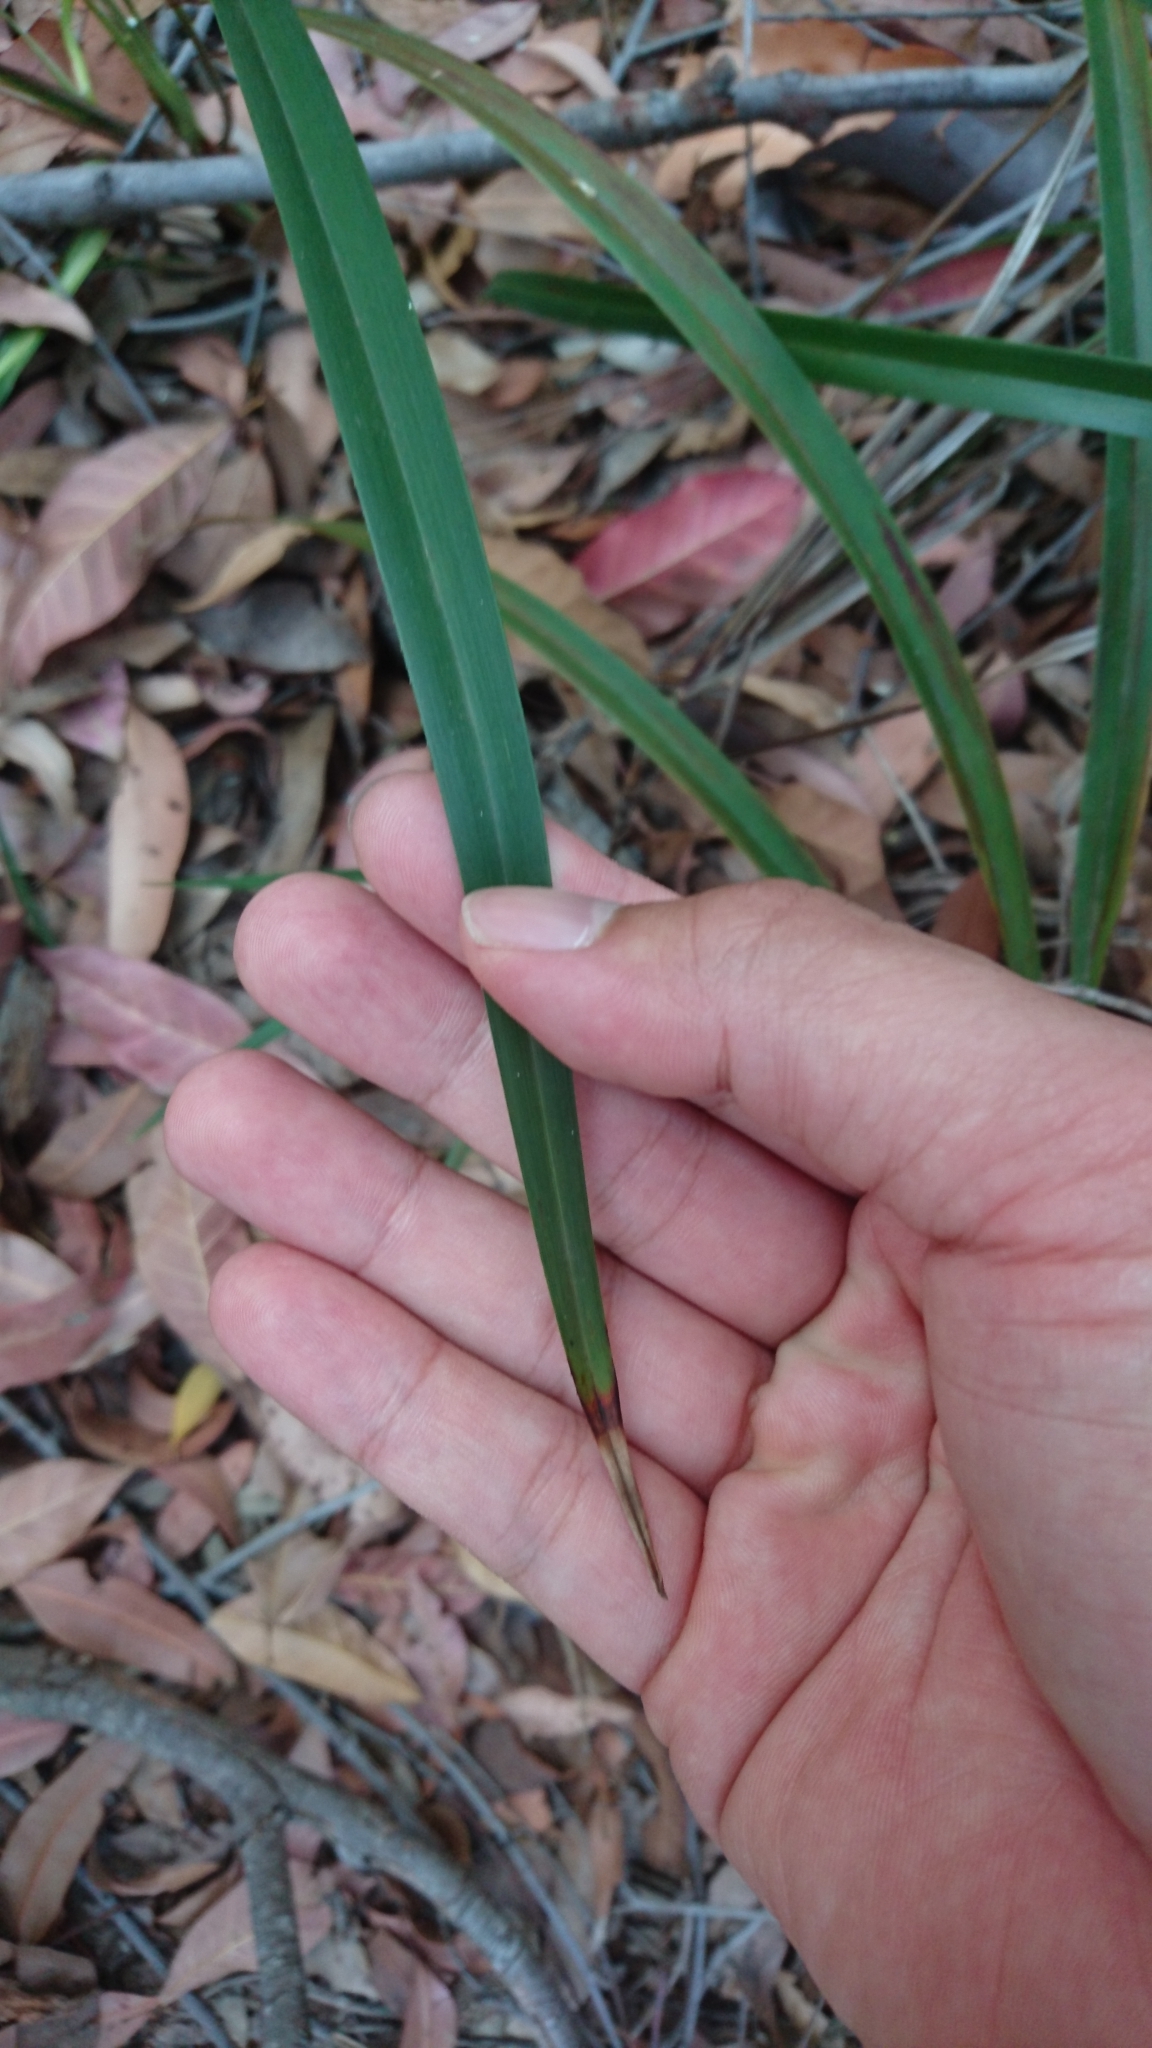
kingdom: Plantae
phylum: Tracheophyta
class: Liliopsida
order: Asparagales
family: Asphodelaceae
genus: Dianella
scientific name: Dianella caerulea
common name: Blue flax-lily
